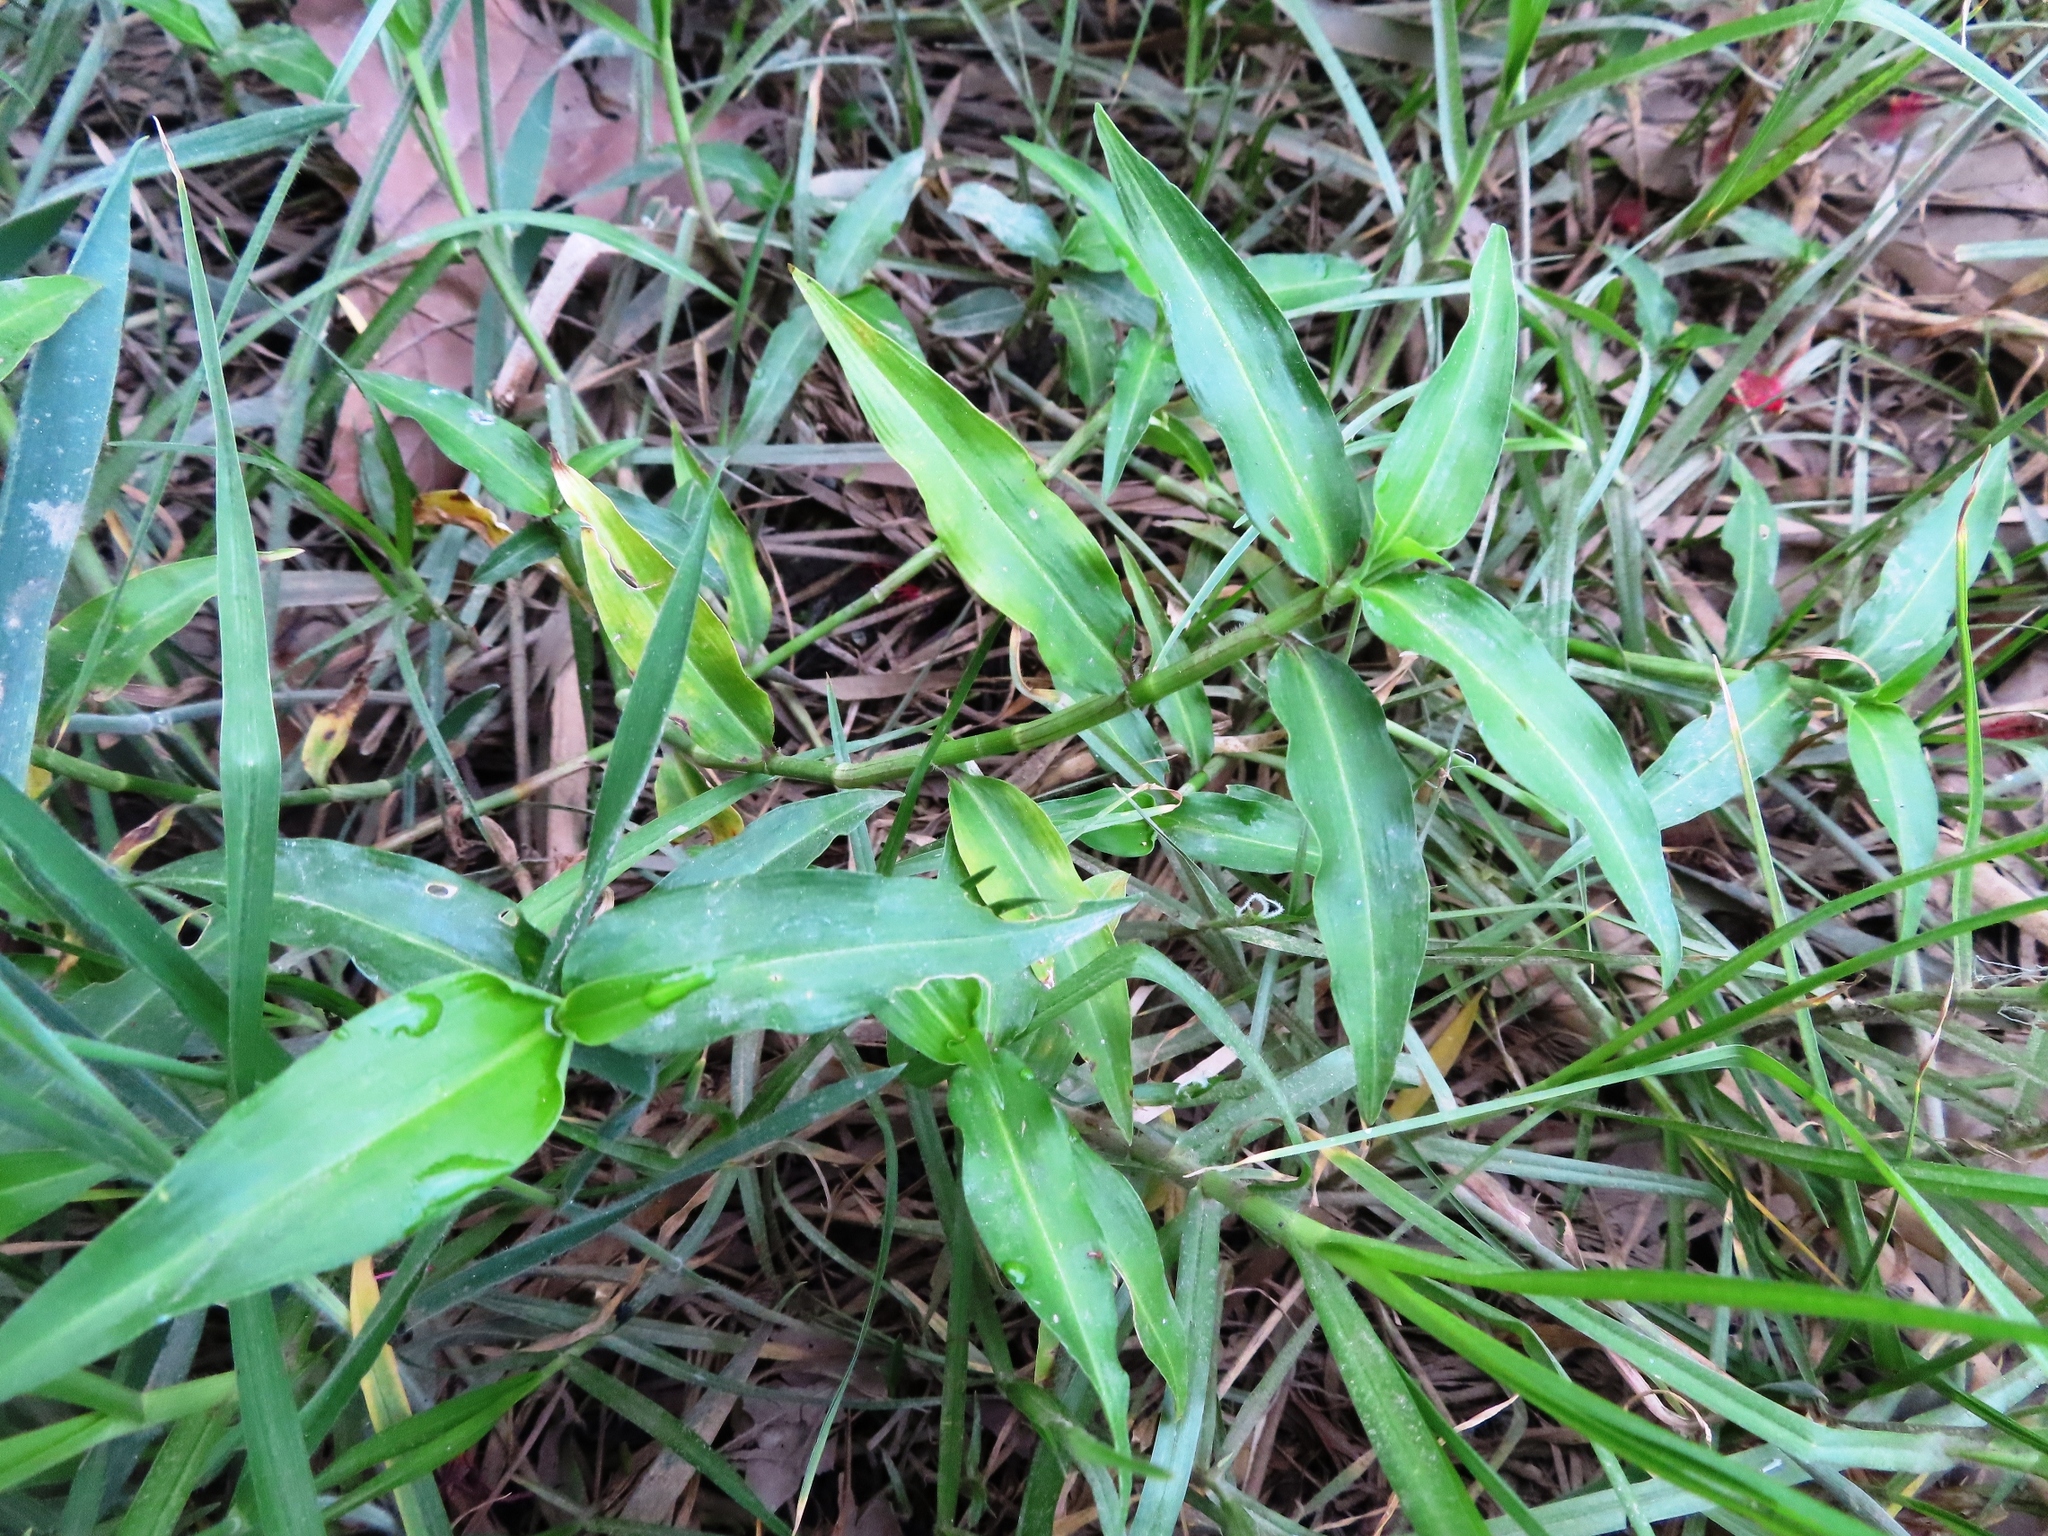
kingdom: Plantae
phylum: Tracheophyta
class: Liliopsida
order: Commelinales
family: Commelinaceae
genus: Commelina
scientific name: Commelina diffusa
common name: Climbing dayflower
